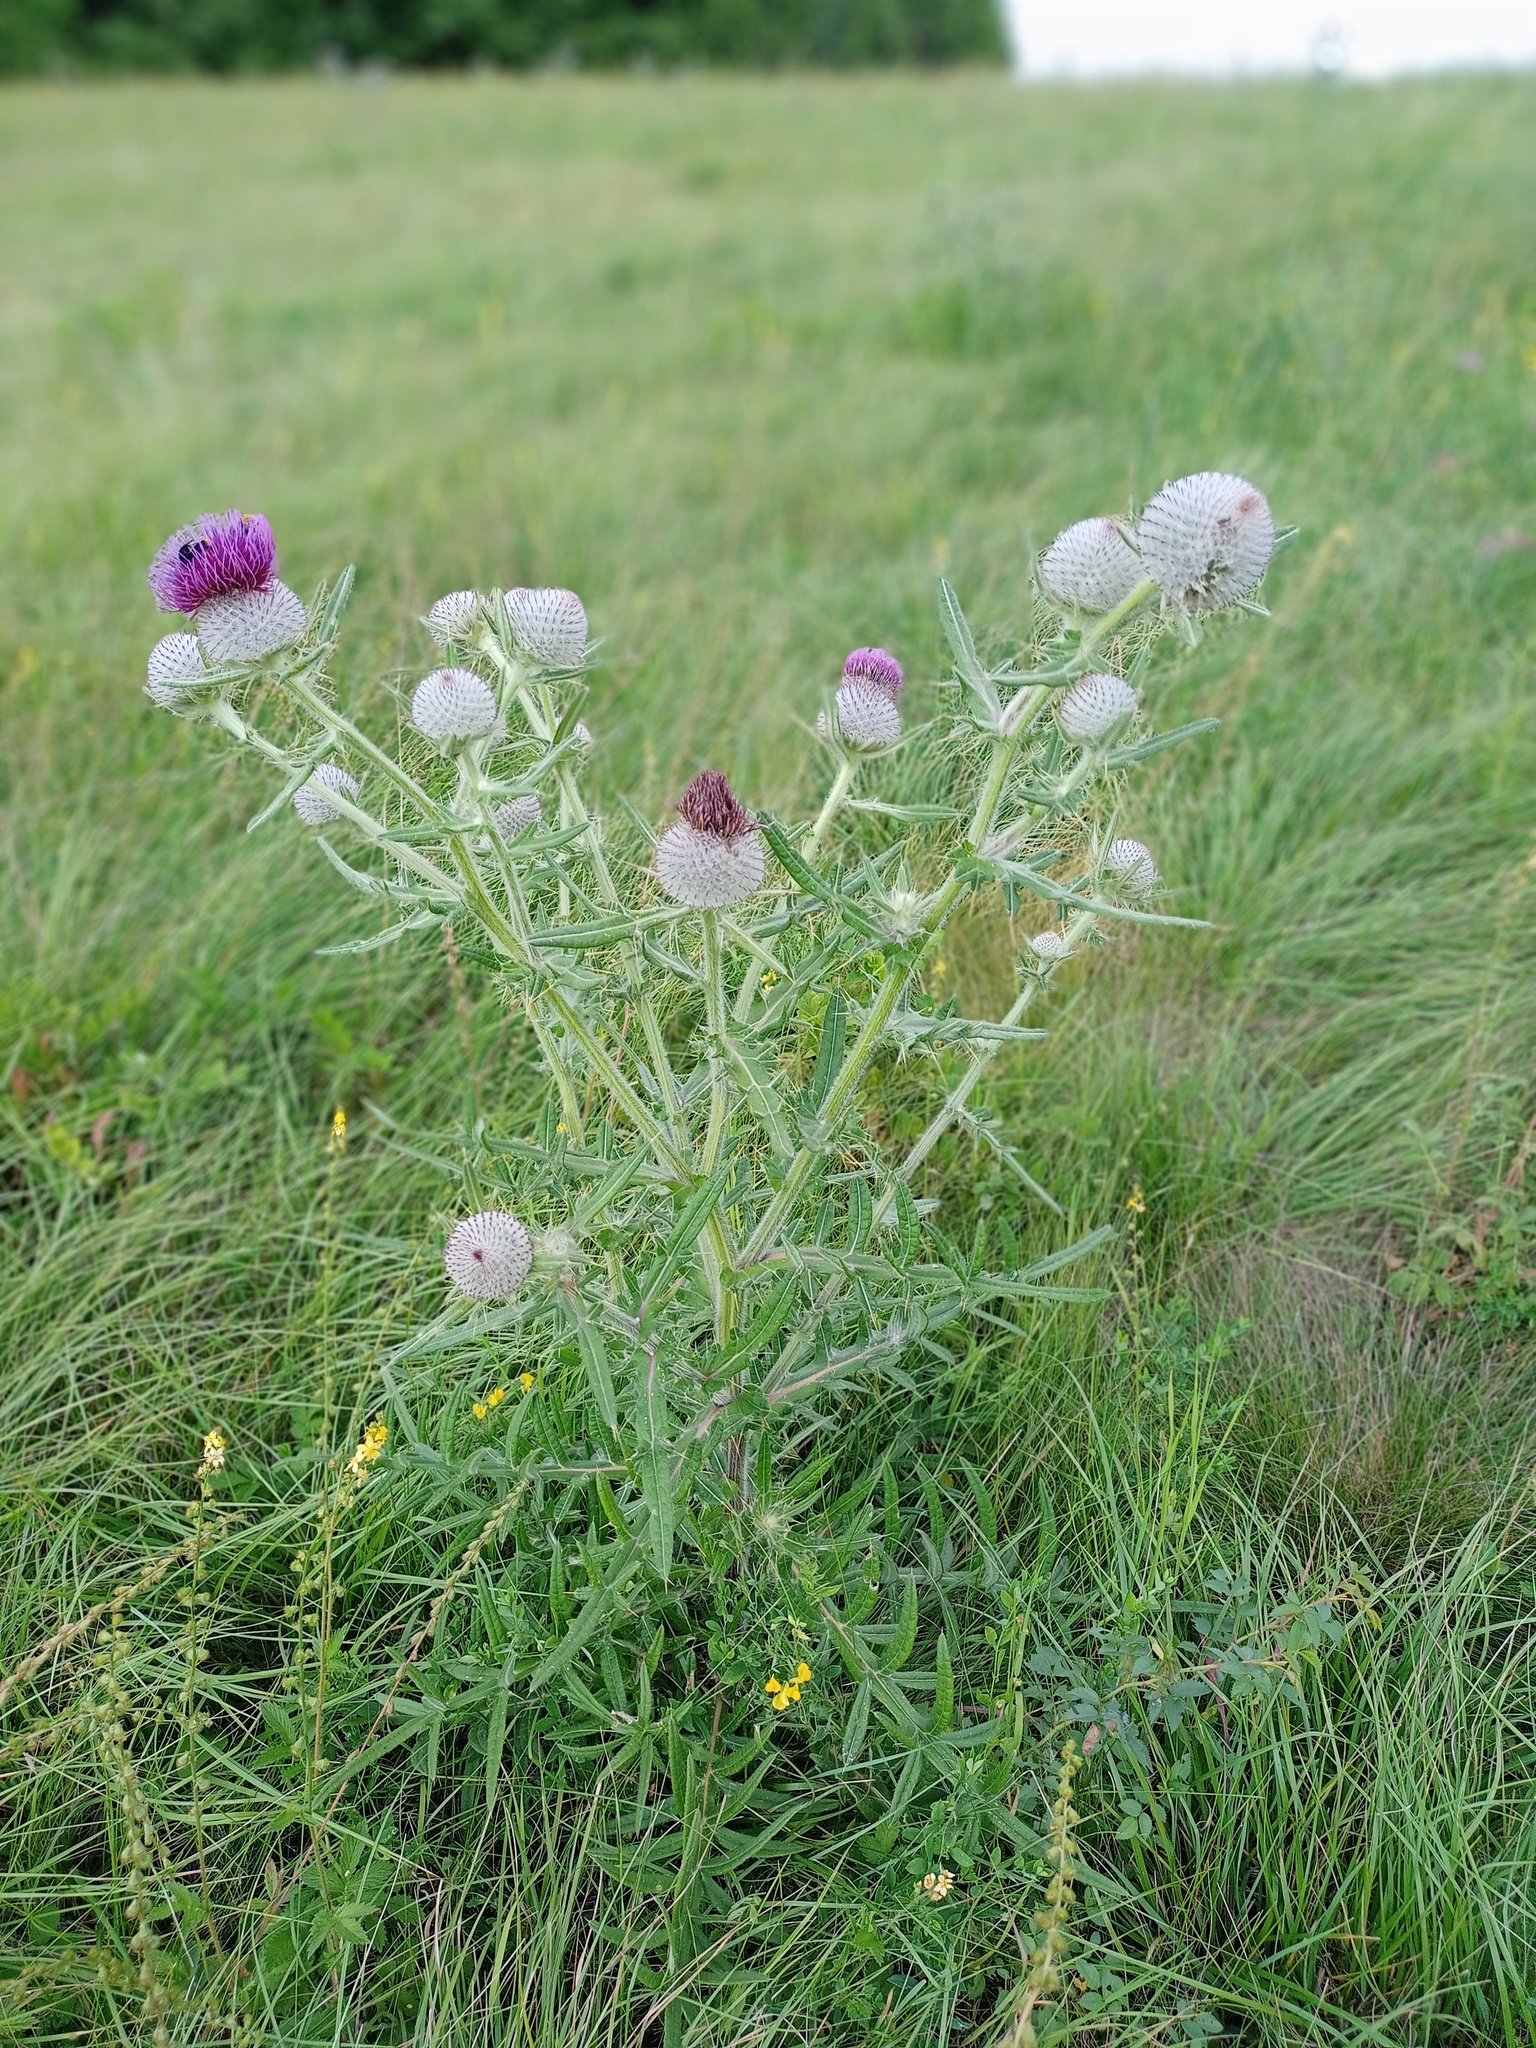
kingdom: Plantae
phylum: Tracheophyta
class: Magnoliopsida
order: Asterales
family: Asteraceae
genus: Lophiolepis
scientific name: Lophiolepis eriophora
